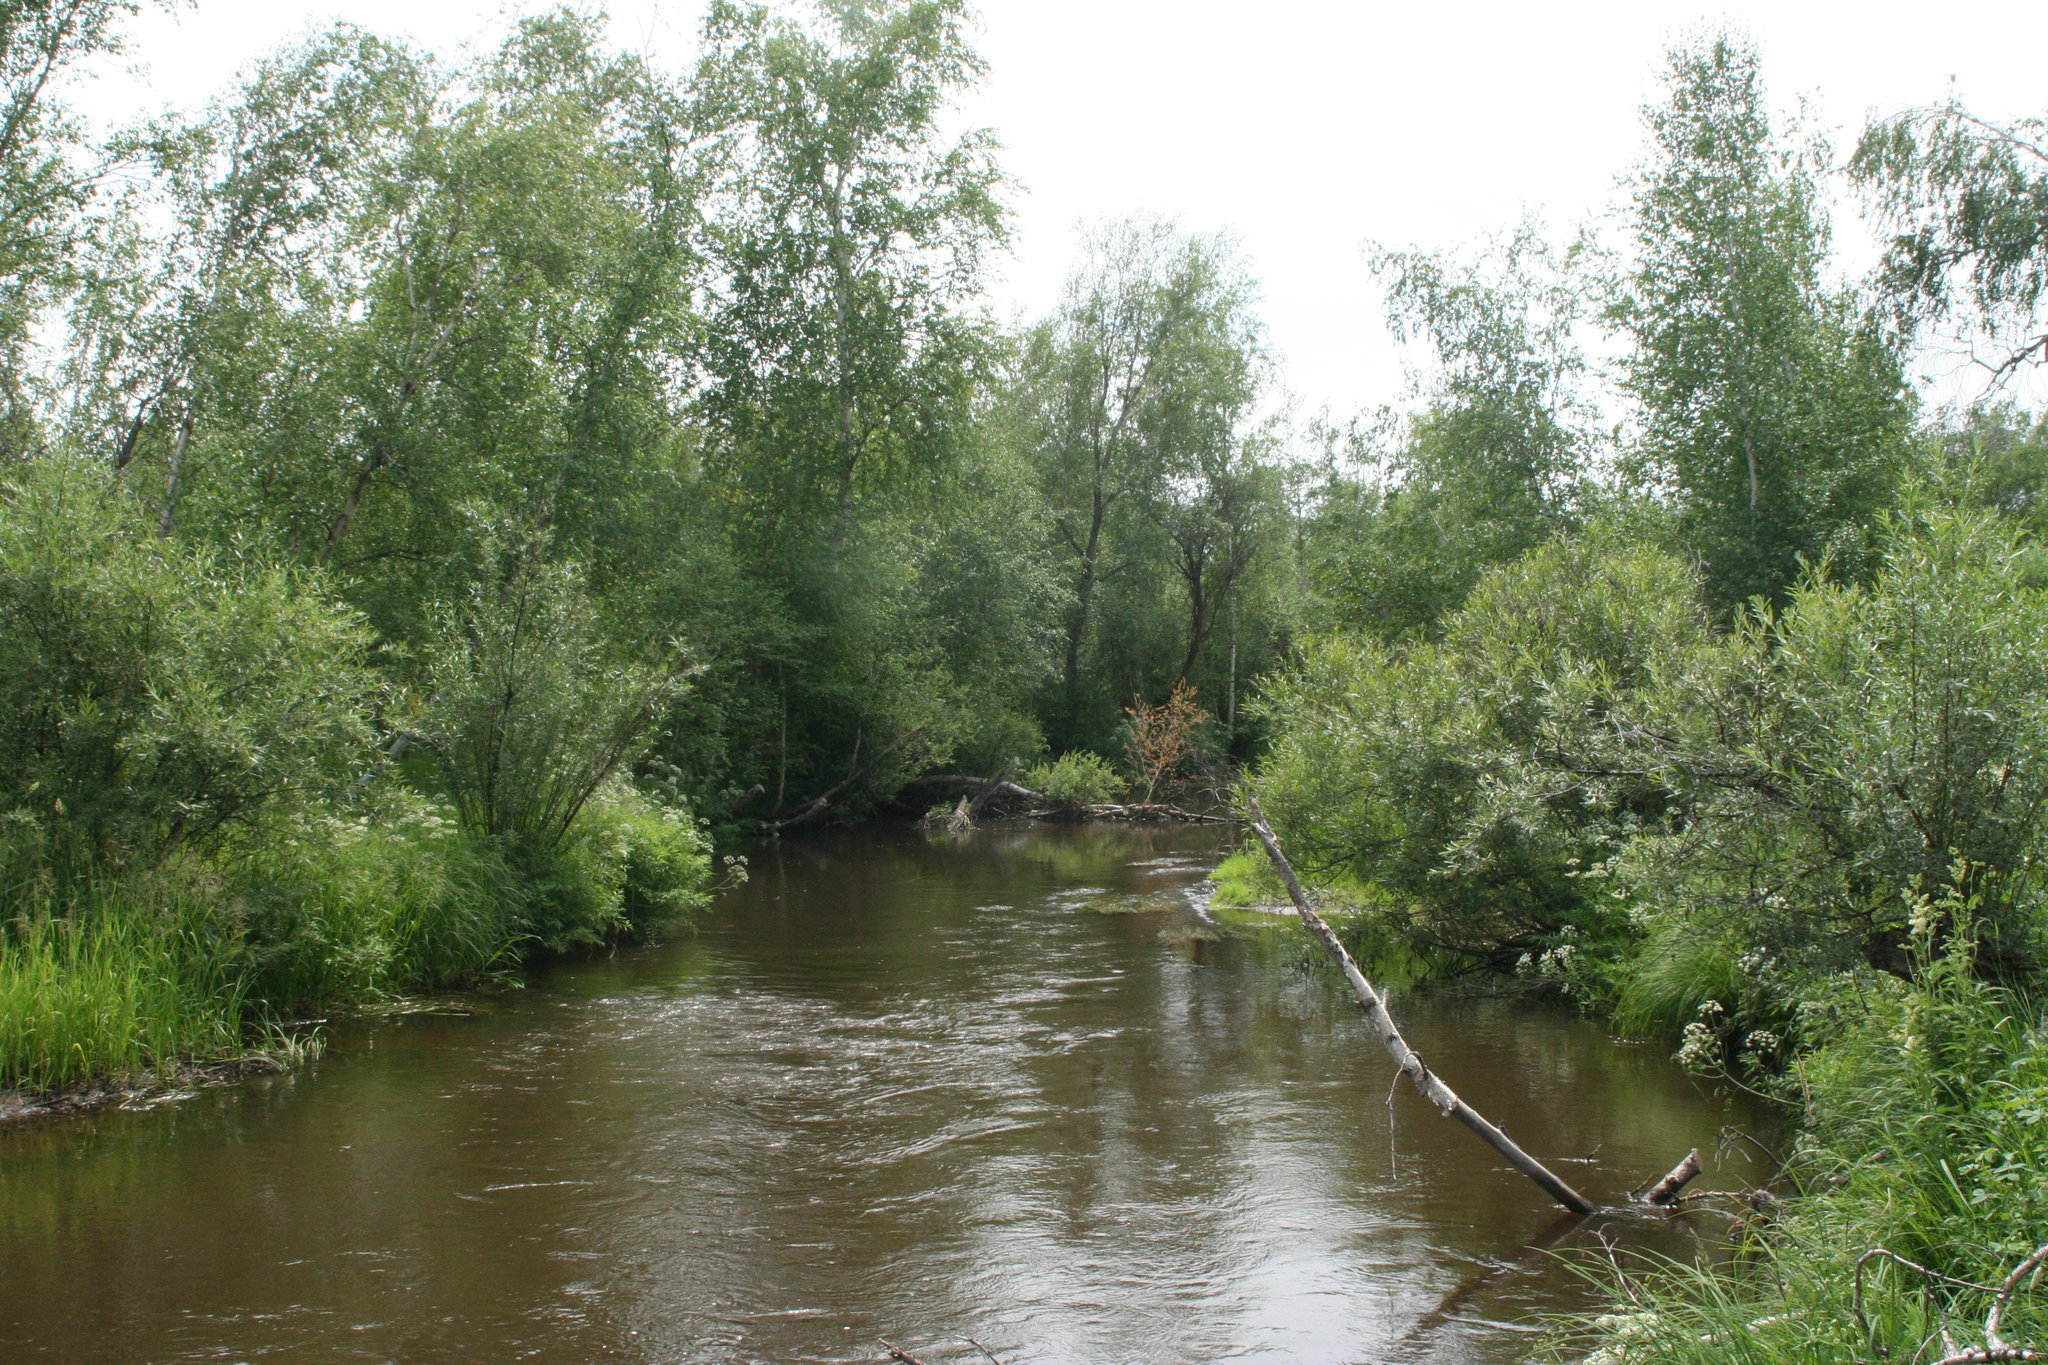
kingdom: Plantae
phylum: Tracheophyta
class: Magnoliopsida
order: Apiales
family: Apiaceae
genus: Cicuta
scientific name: Cicuta virosa
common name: Cowbane
